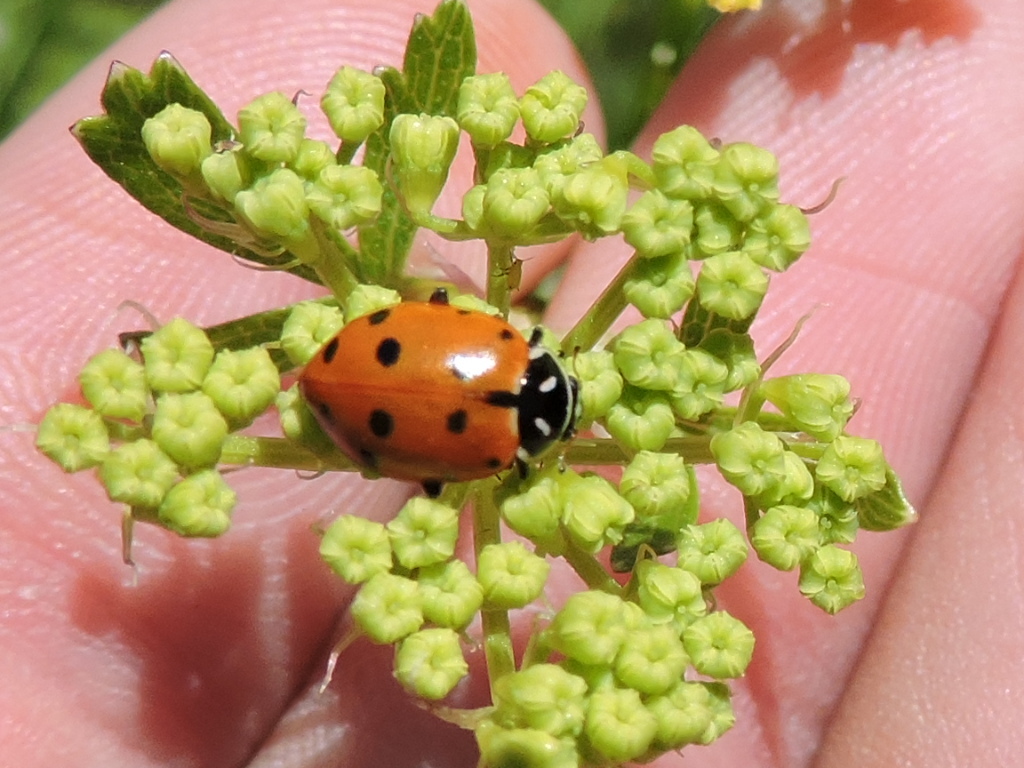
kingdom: Animalia
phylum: Arthropoda
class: Insecta
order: Coleoptera
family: Coccinellidae
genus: Hippodamia
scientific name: Hippodamia convergens
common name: Convergent lady beetle
